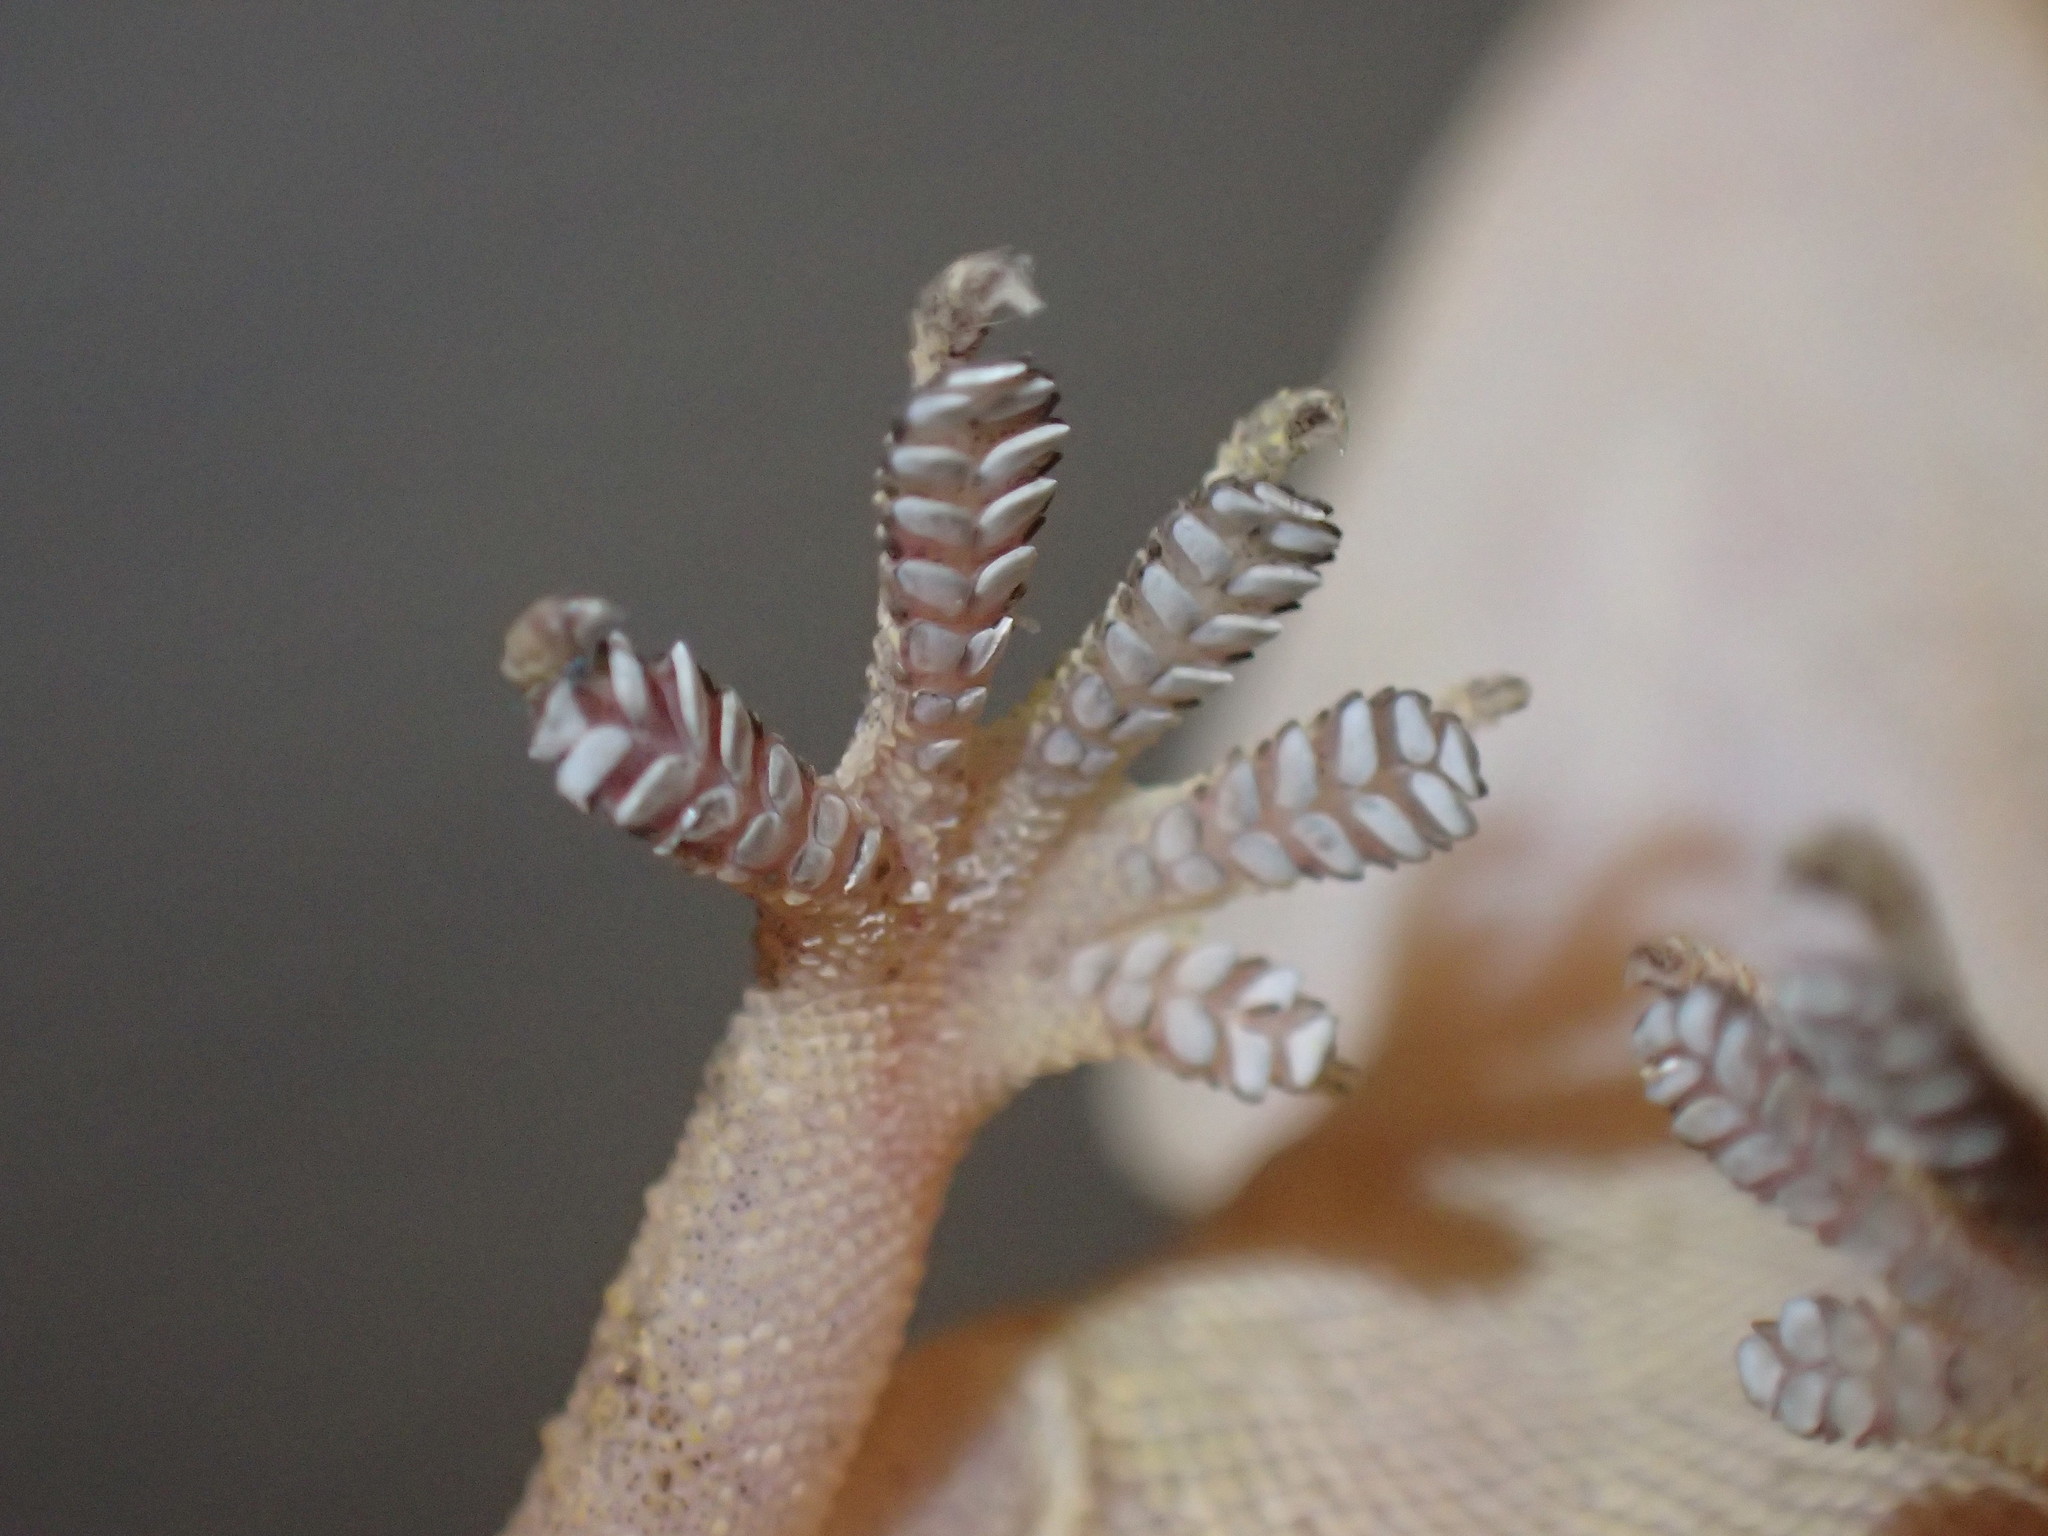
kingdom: Animalia
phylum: Chordata
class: Squamata
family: Gekkonidae
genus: Hemidactylus
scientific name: Hemidactylus mabouia
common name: House gecko
